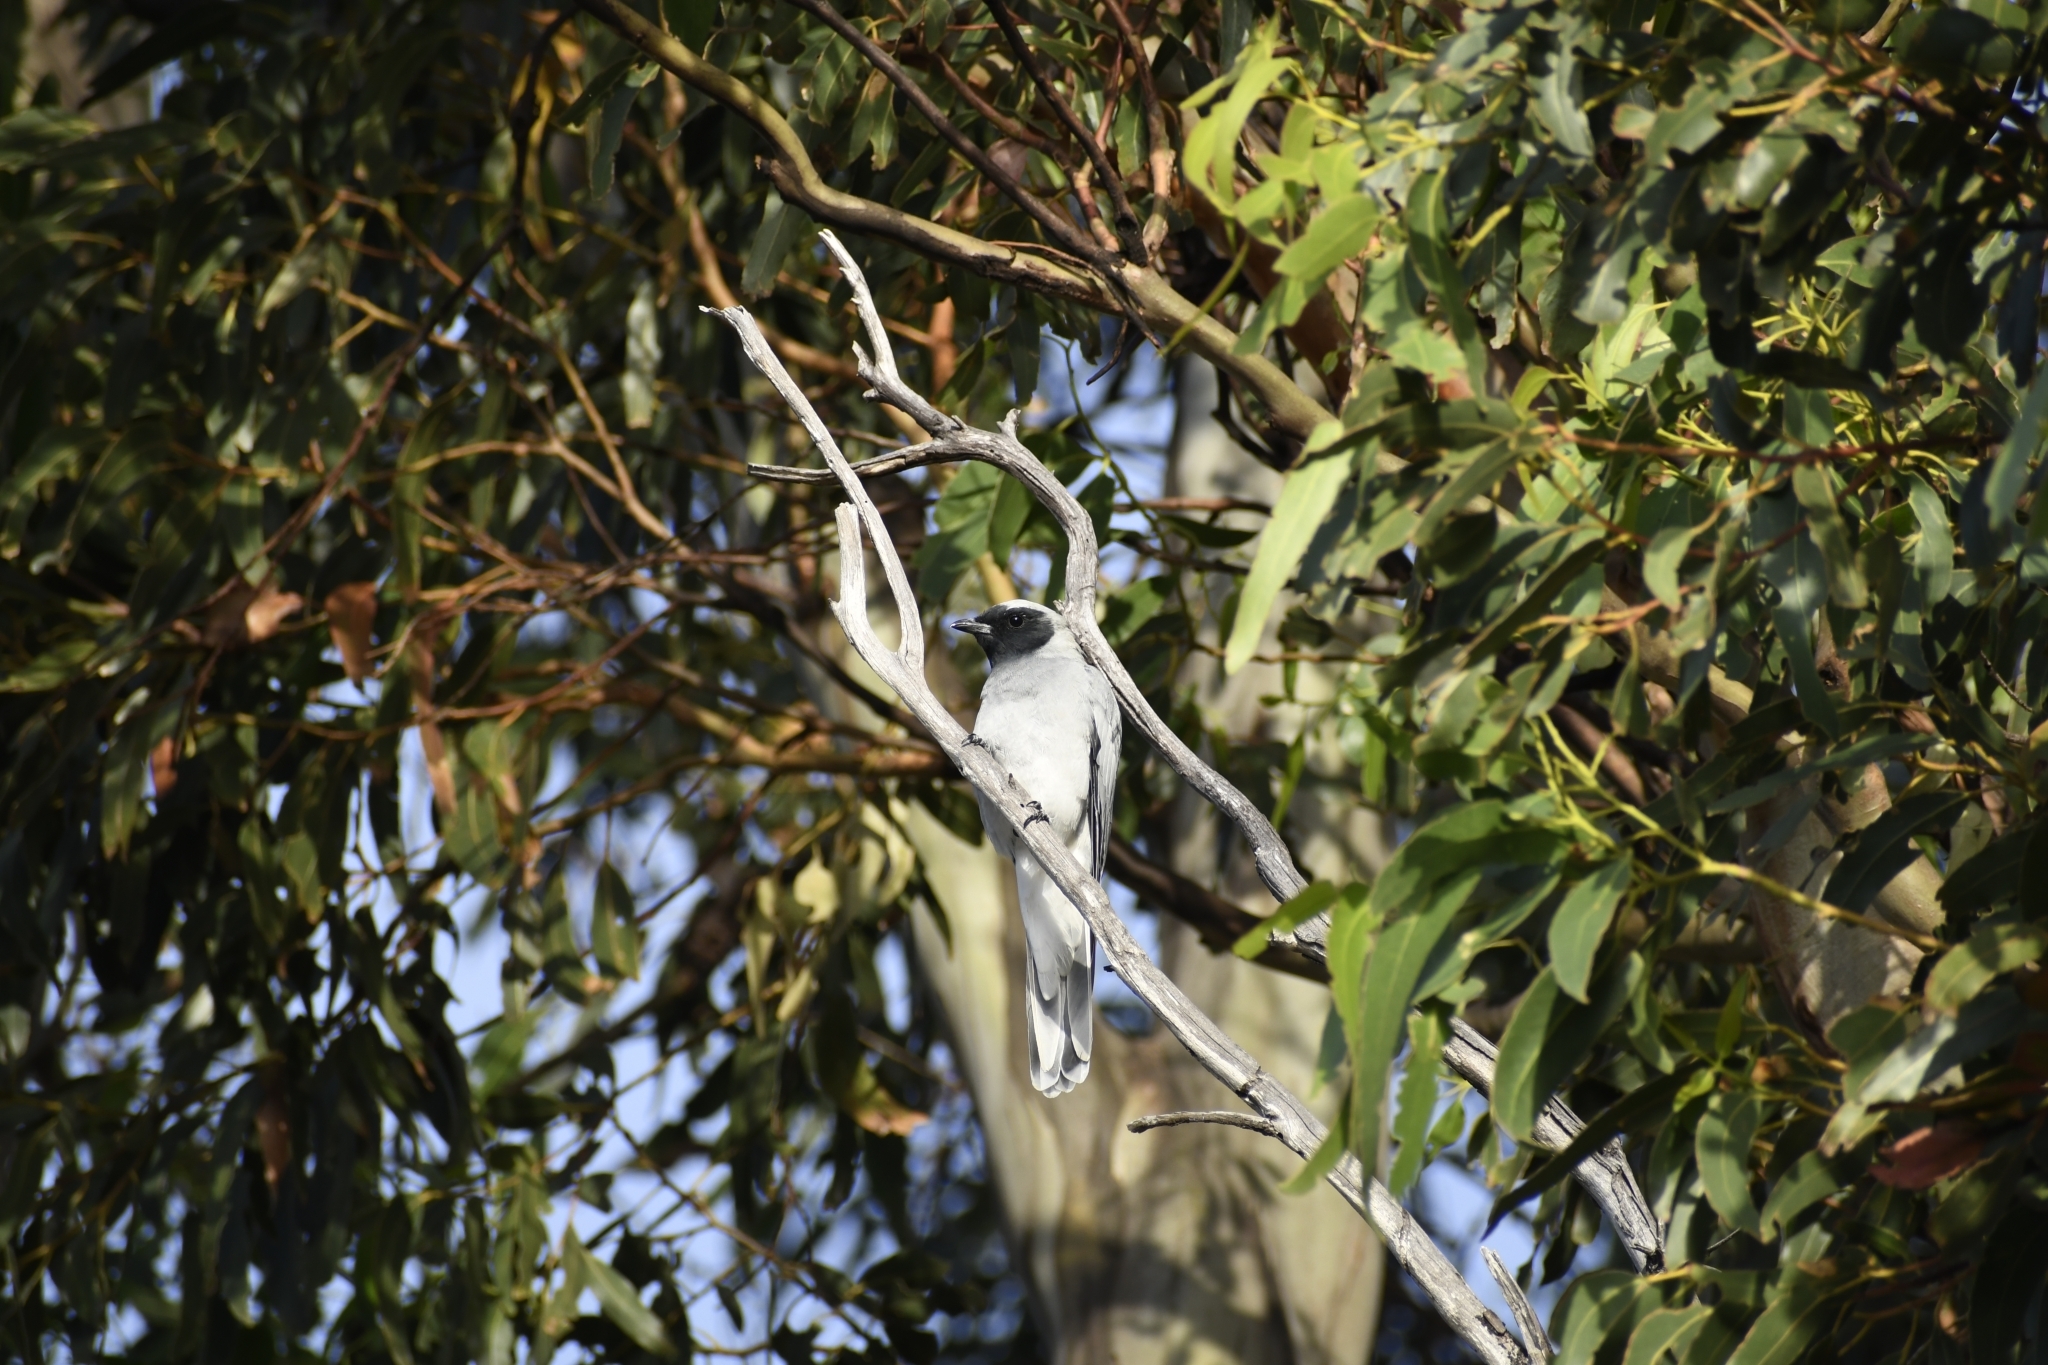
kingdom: Animalia
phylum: Chordata
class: Aves
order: Passeriformes
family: Campephagidae
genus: Coracina
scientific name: Coracina novaehollandiae
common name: Black-faced cuckooshrike
